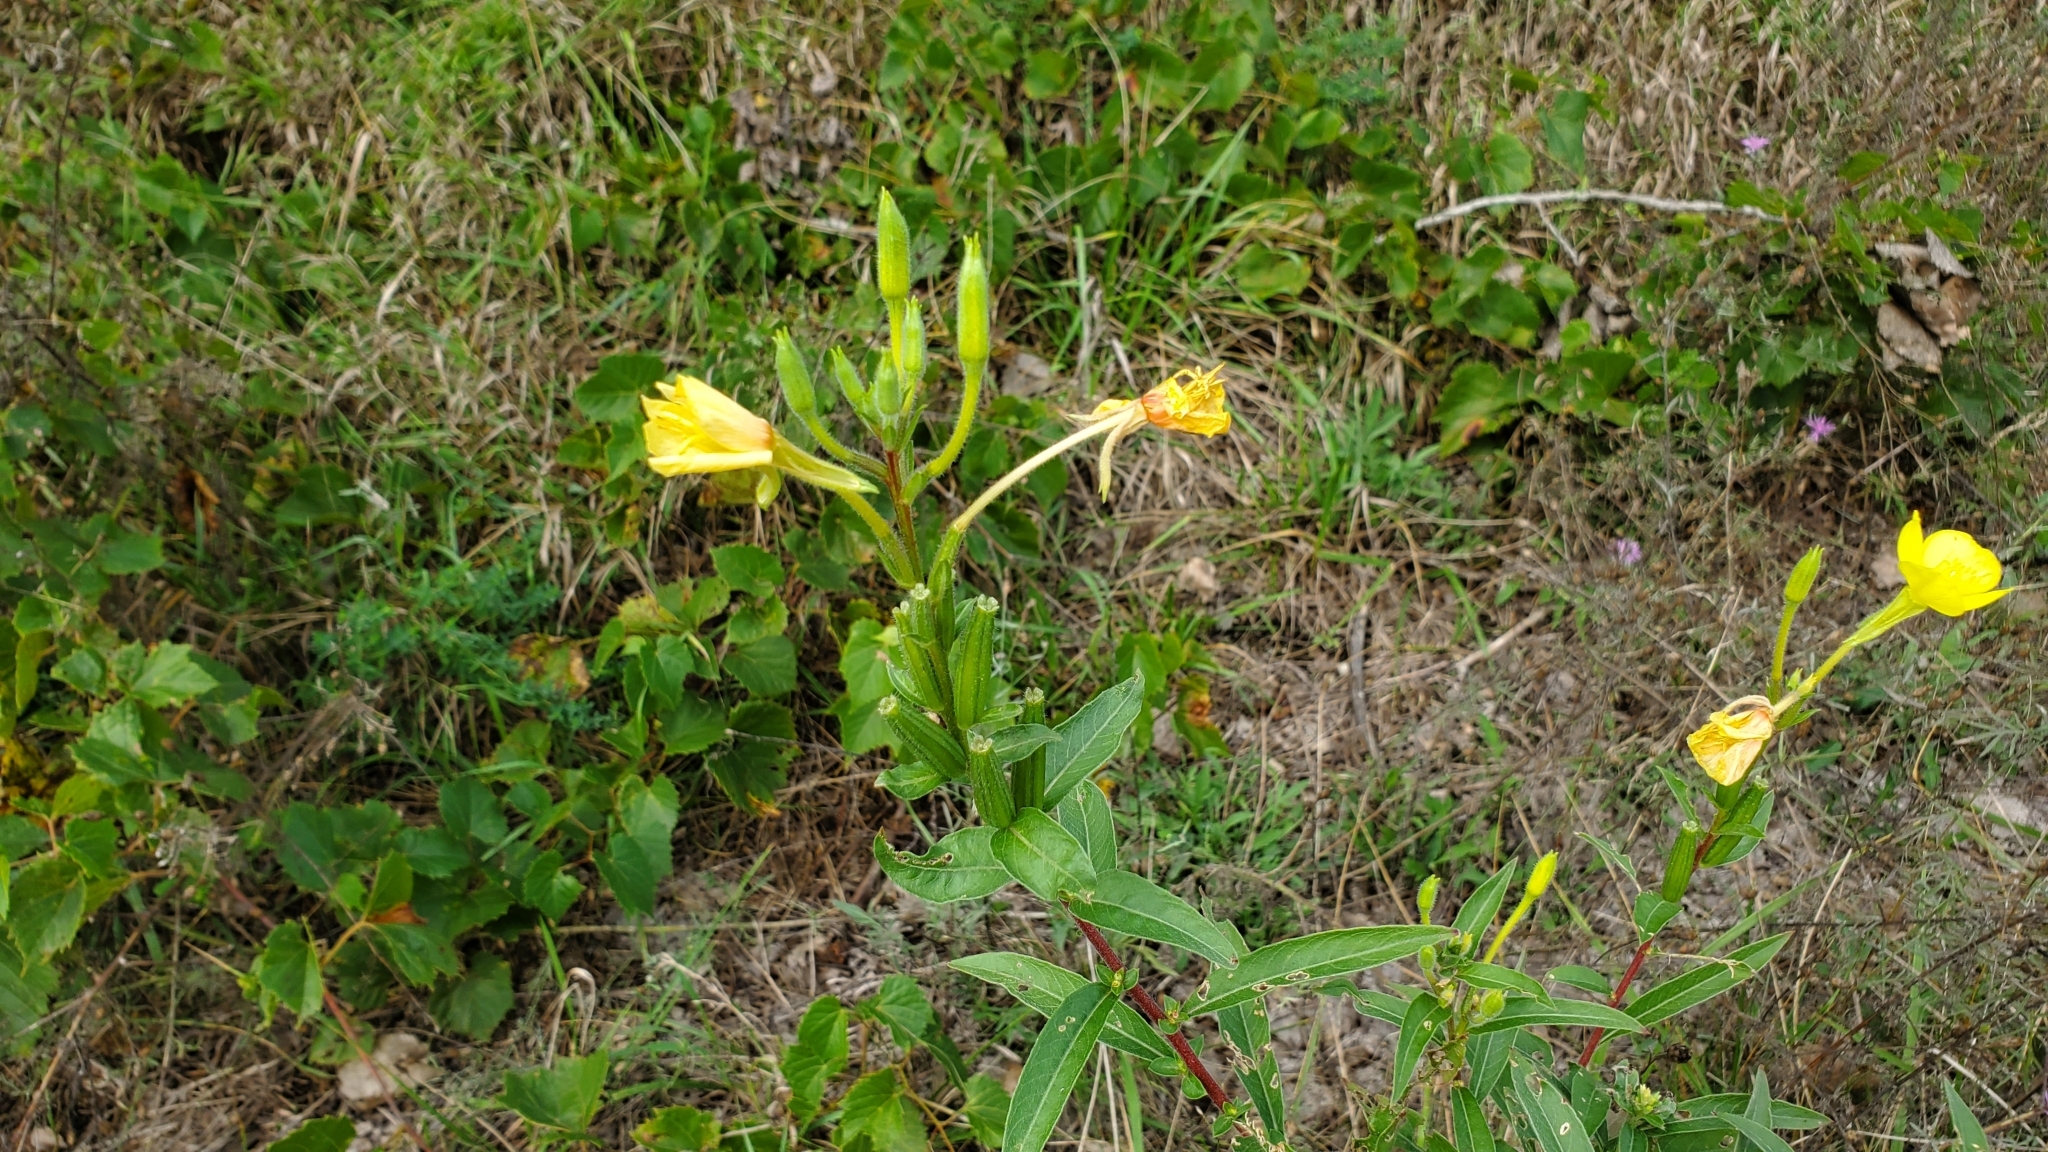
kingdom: Plantae
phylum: Tracheophyta
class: Magnoliopsida
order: Myrtales
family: Onagraceae
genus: Oenothera
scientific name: Oenothera biennis
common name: Common evening-primrose
